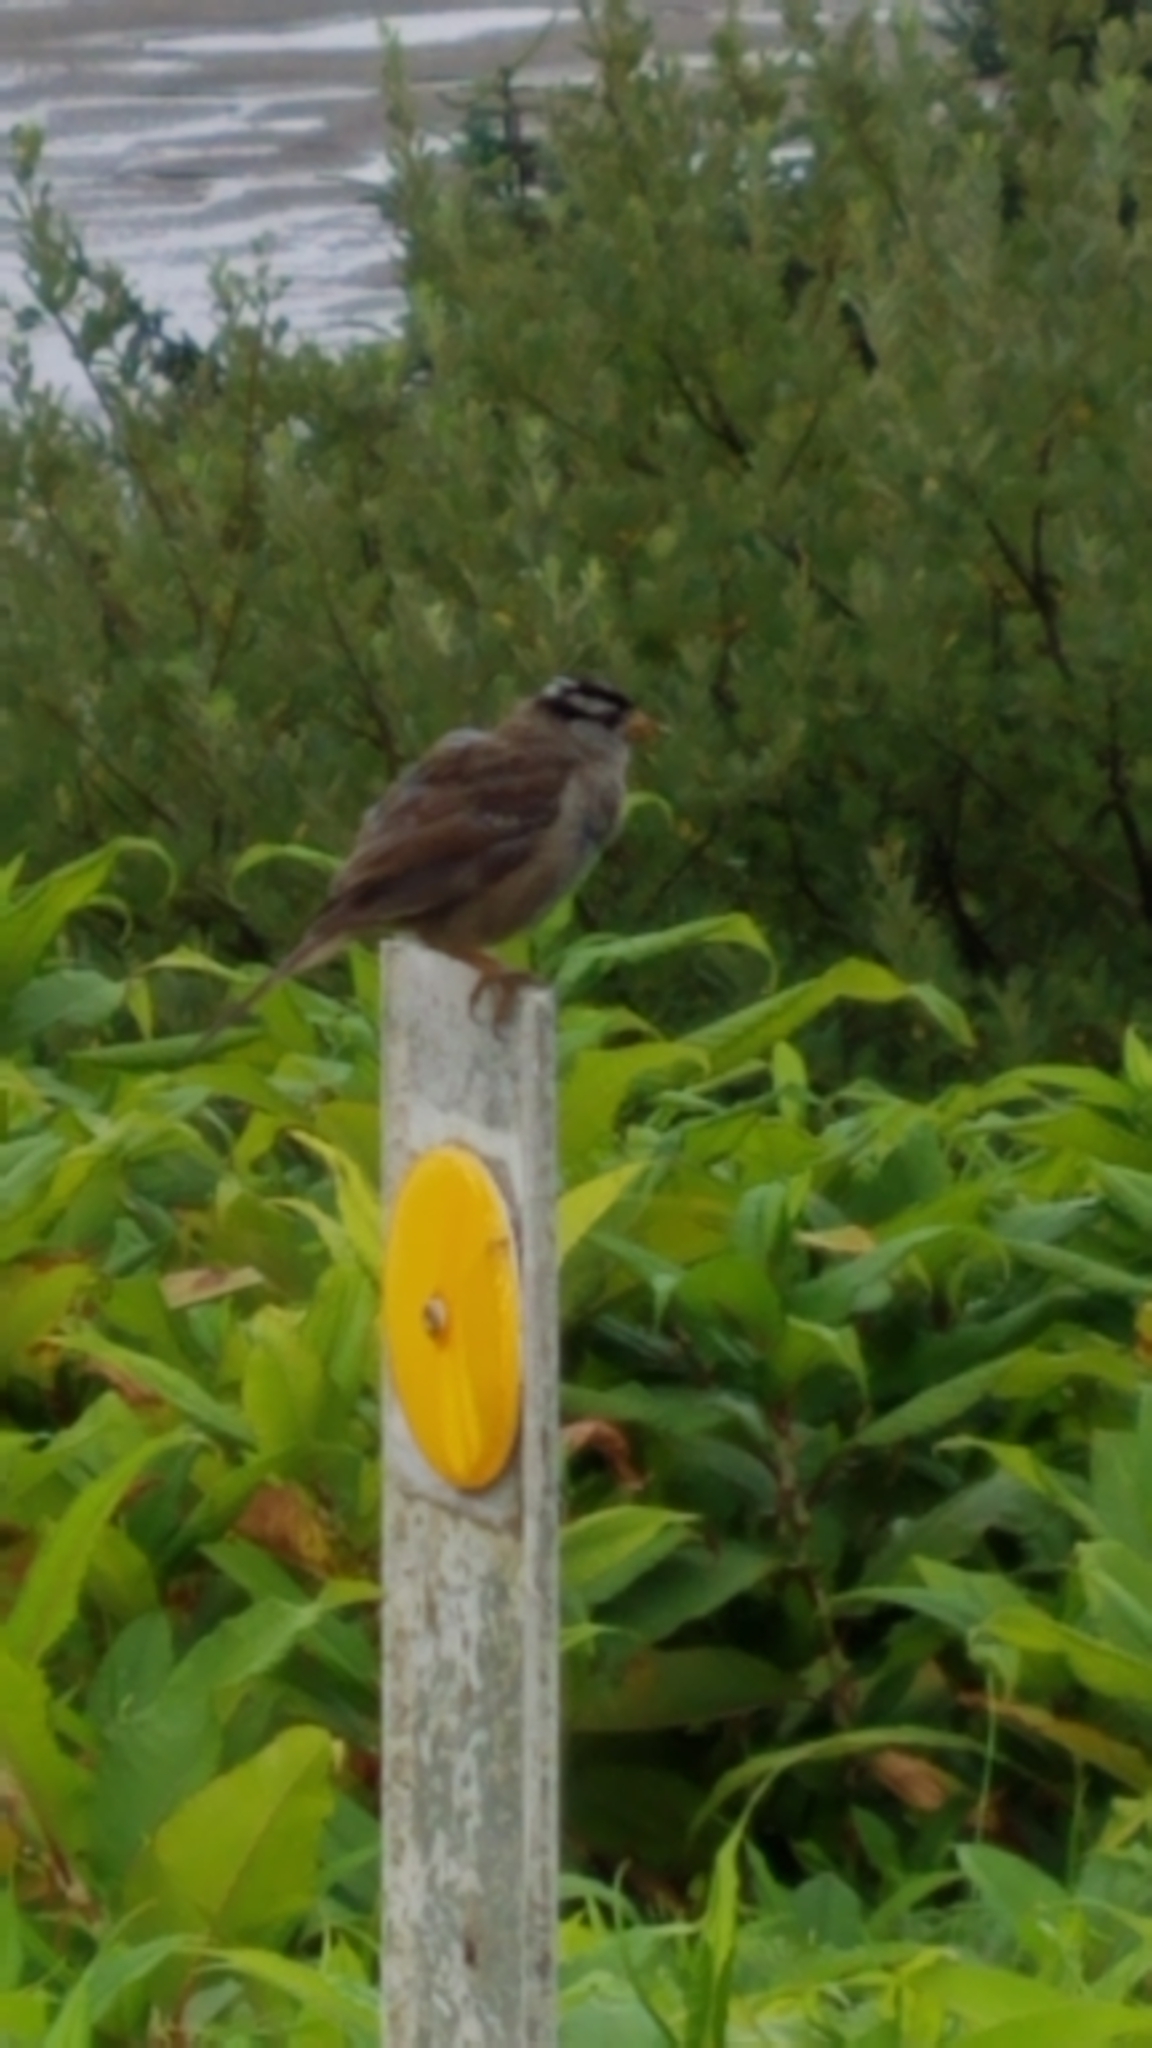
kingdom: Animalia
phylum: Chordata
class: Aves
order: Passeriformes
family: Passerellidae
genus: Zonotrichia
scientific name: Zonotrichia leucophrys
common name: White-crowned sparrow
